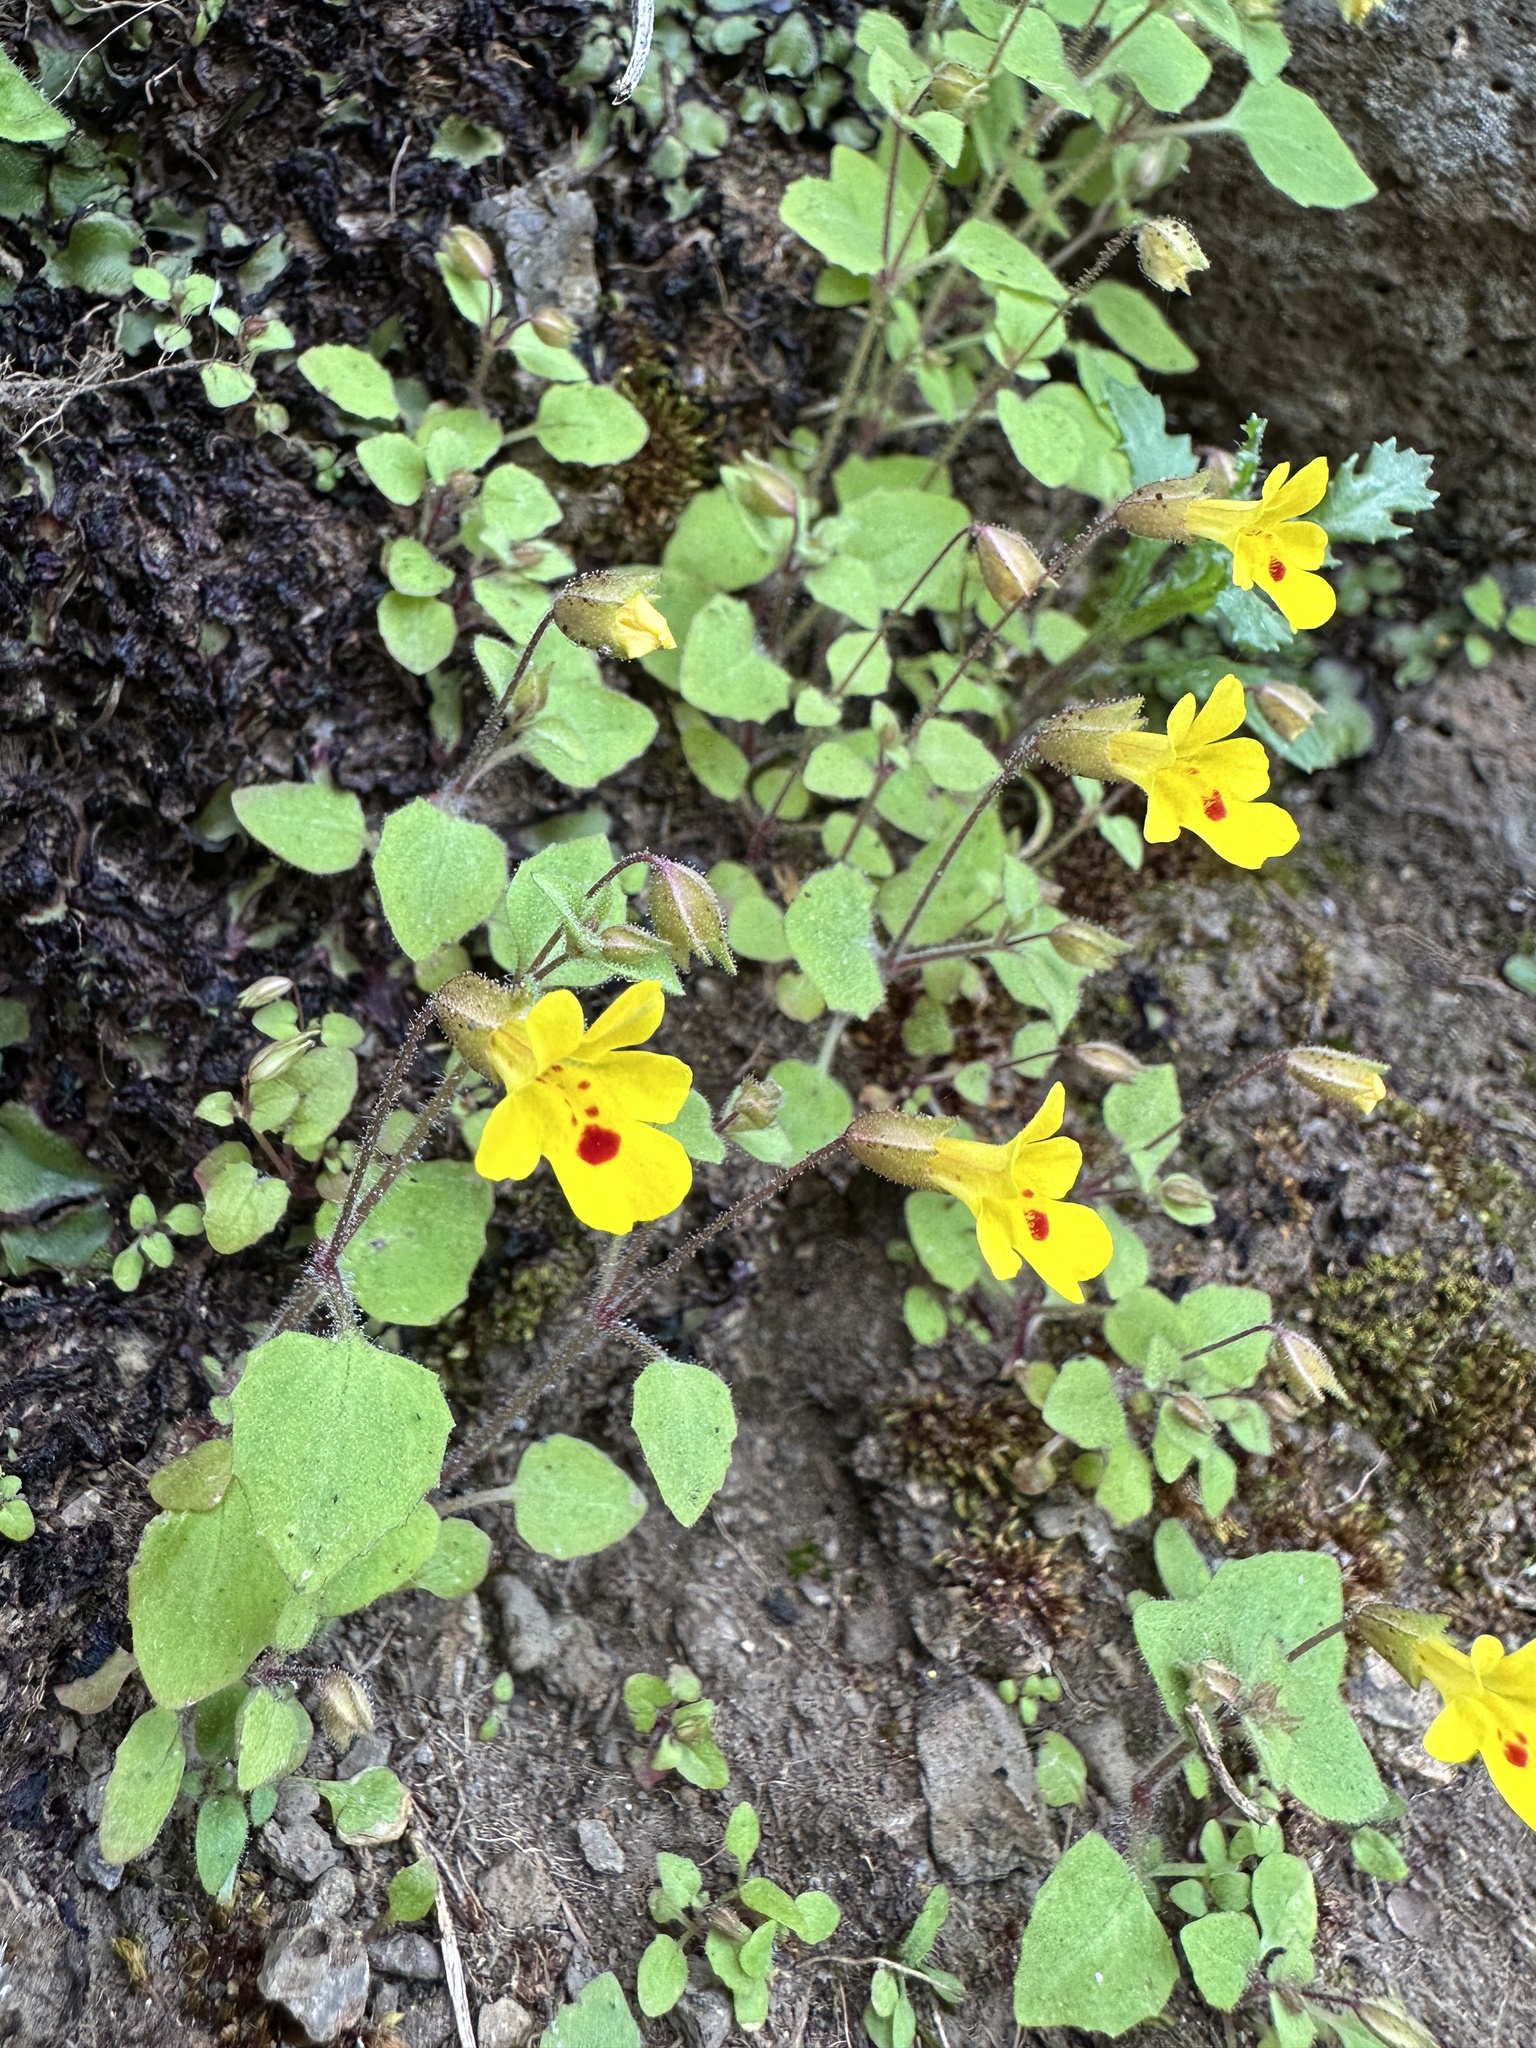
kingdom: Plantae
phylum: Tracheophyta
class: Magnoliopsida
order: Lamiales
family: Phrymaceae
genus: Erythranthe
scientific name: Erythranthe marmorata
